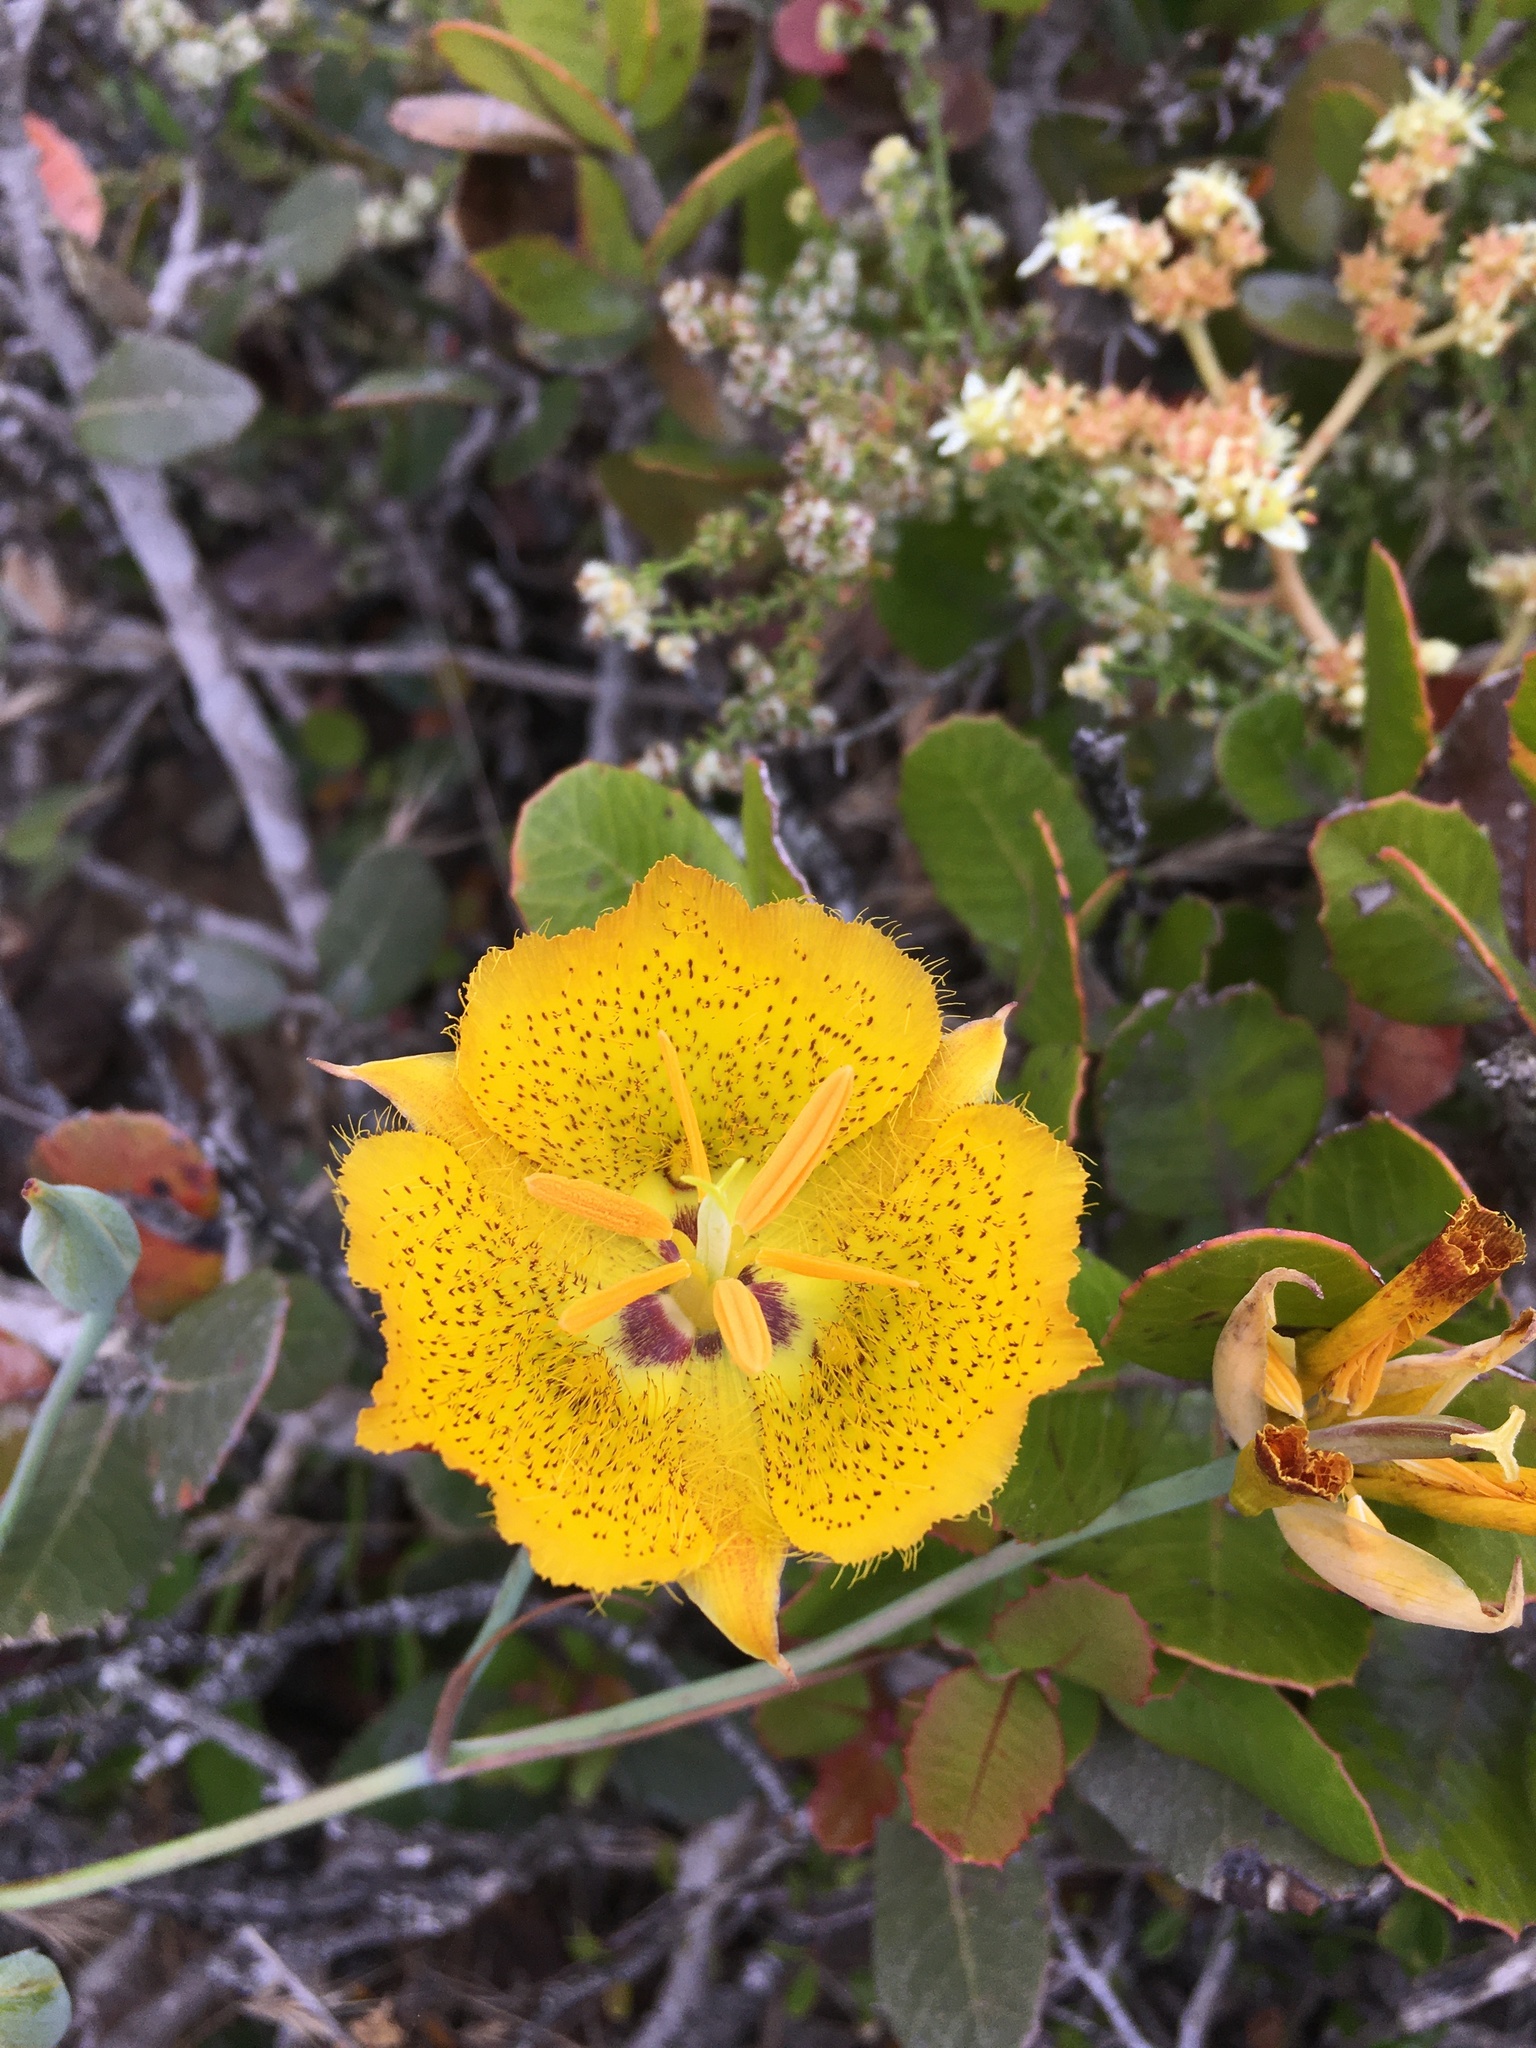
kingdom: Plantae
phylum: Tracheophyta
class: Liliopsida
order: Liliales
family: Liliaceae
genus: Calochortus
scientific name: Calochortus weedii
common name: Weed's mariposa-lily
